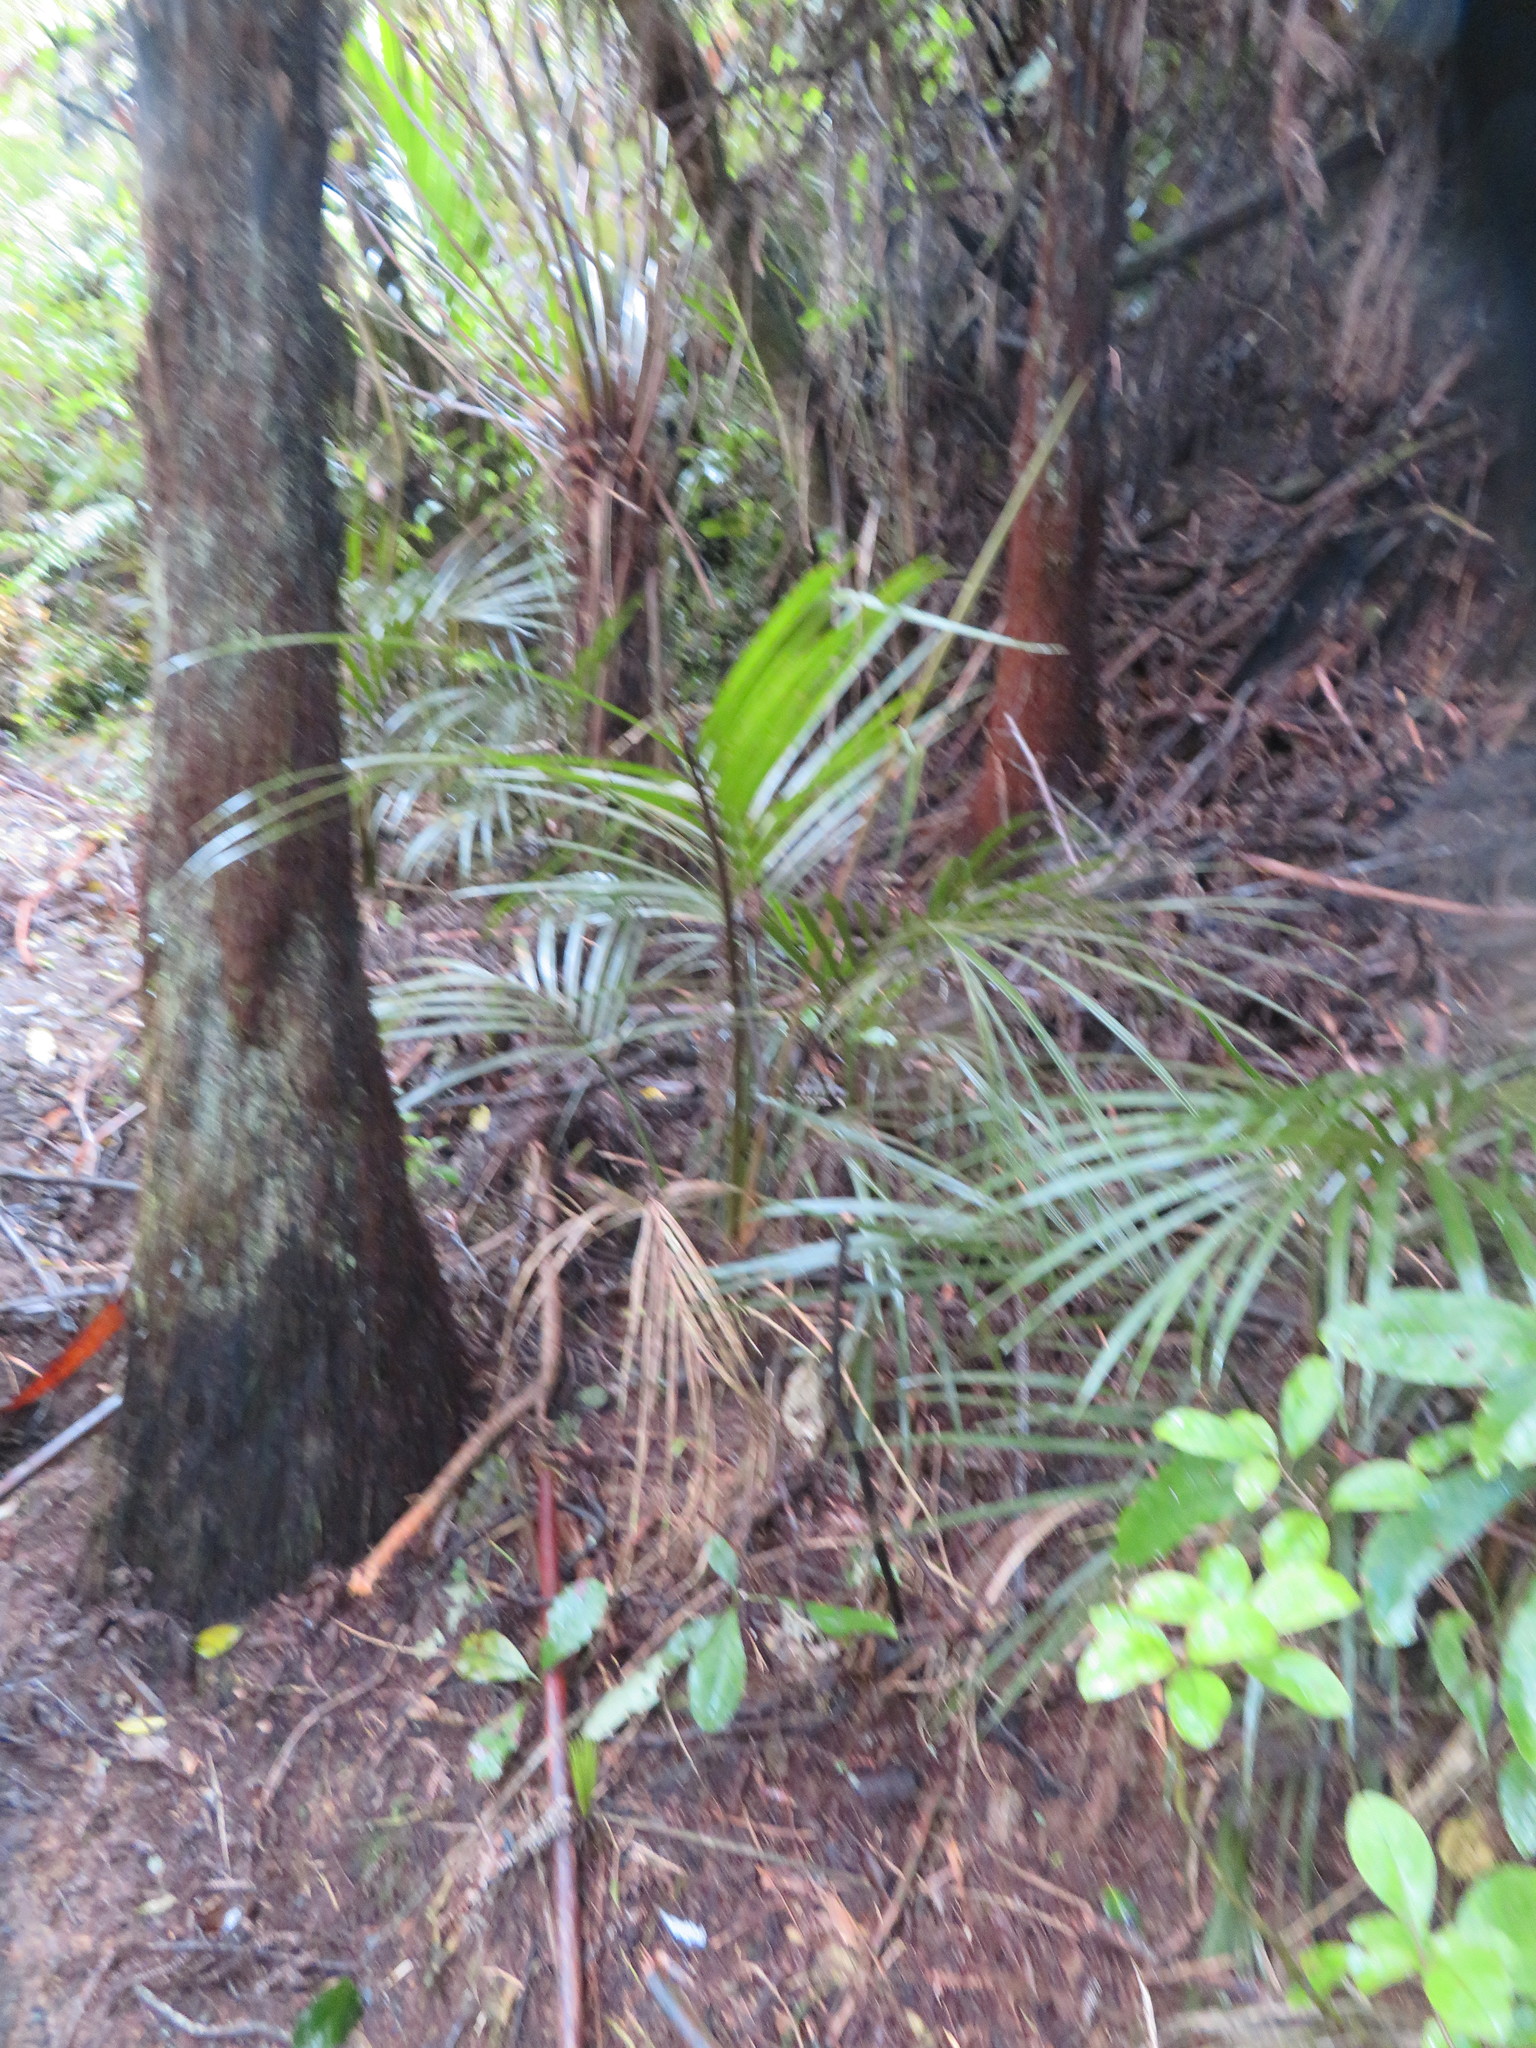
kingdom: Plantae
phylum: Tracheophyta
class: Liliopsida
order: Arecales
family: Arecaceae
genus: Rhopalostylis
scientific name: Rhopalostylis sapida
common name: Feather-duster palm
